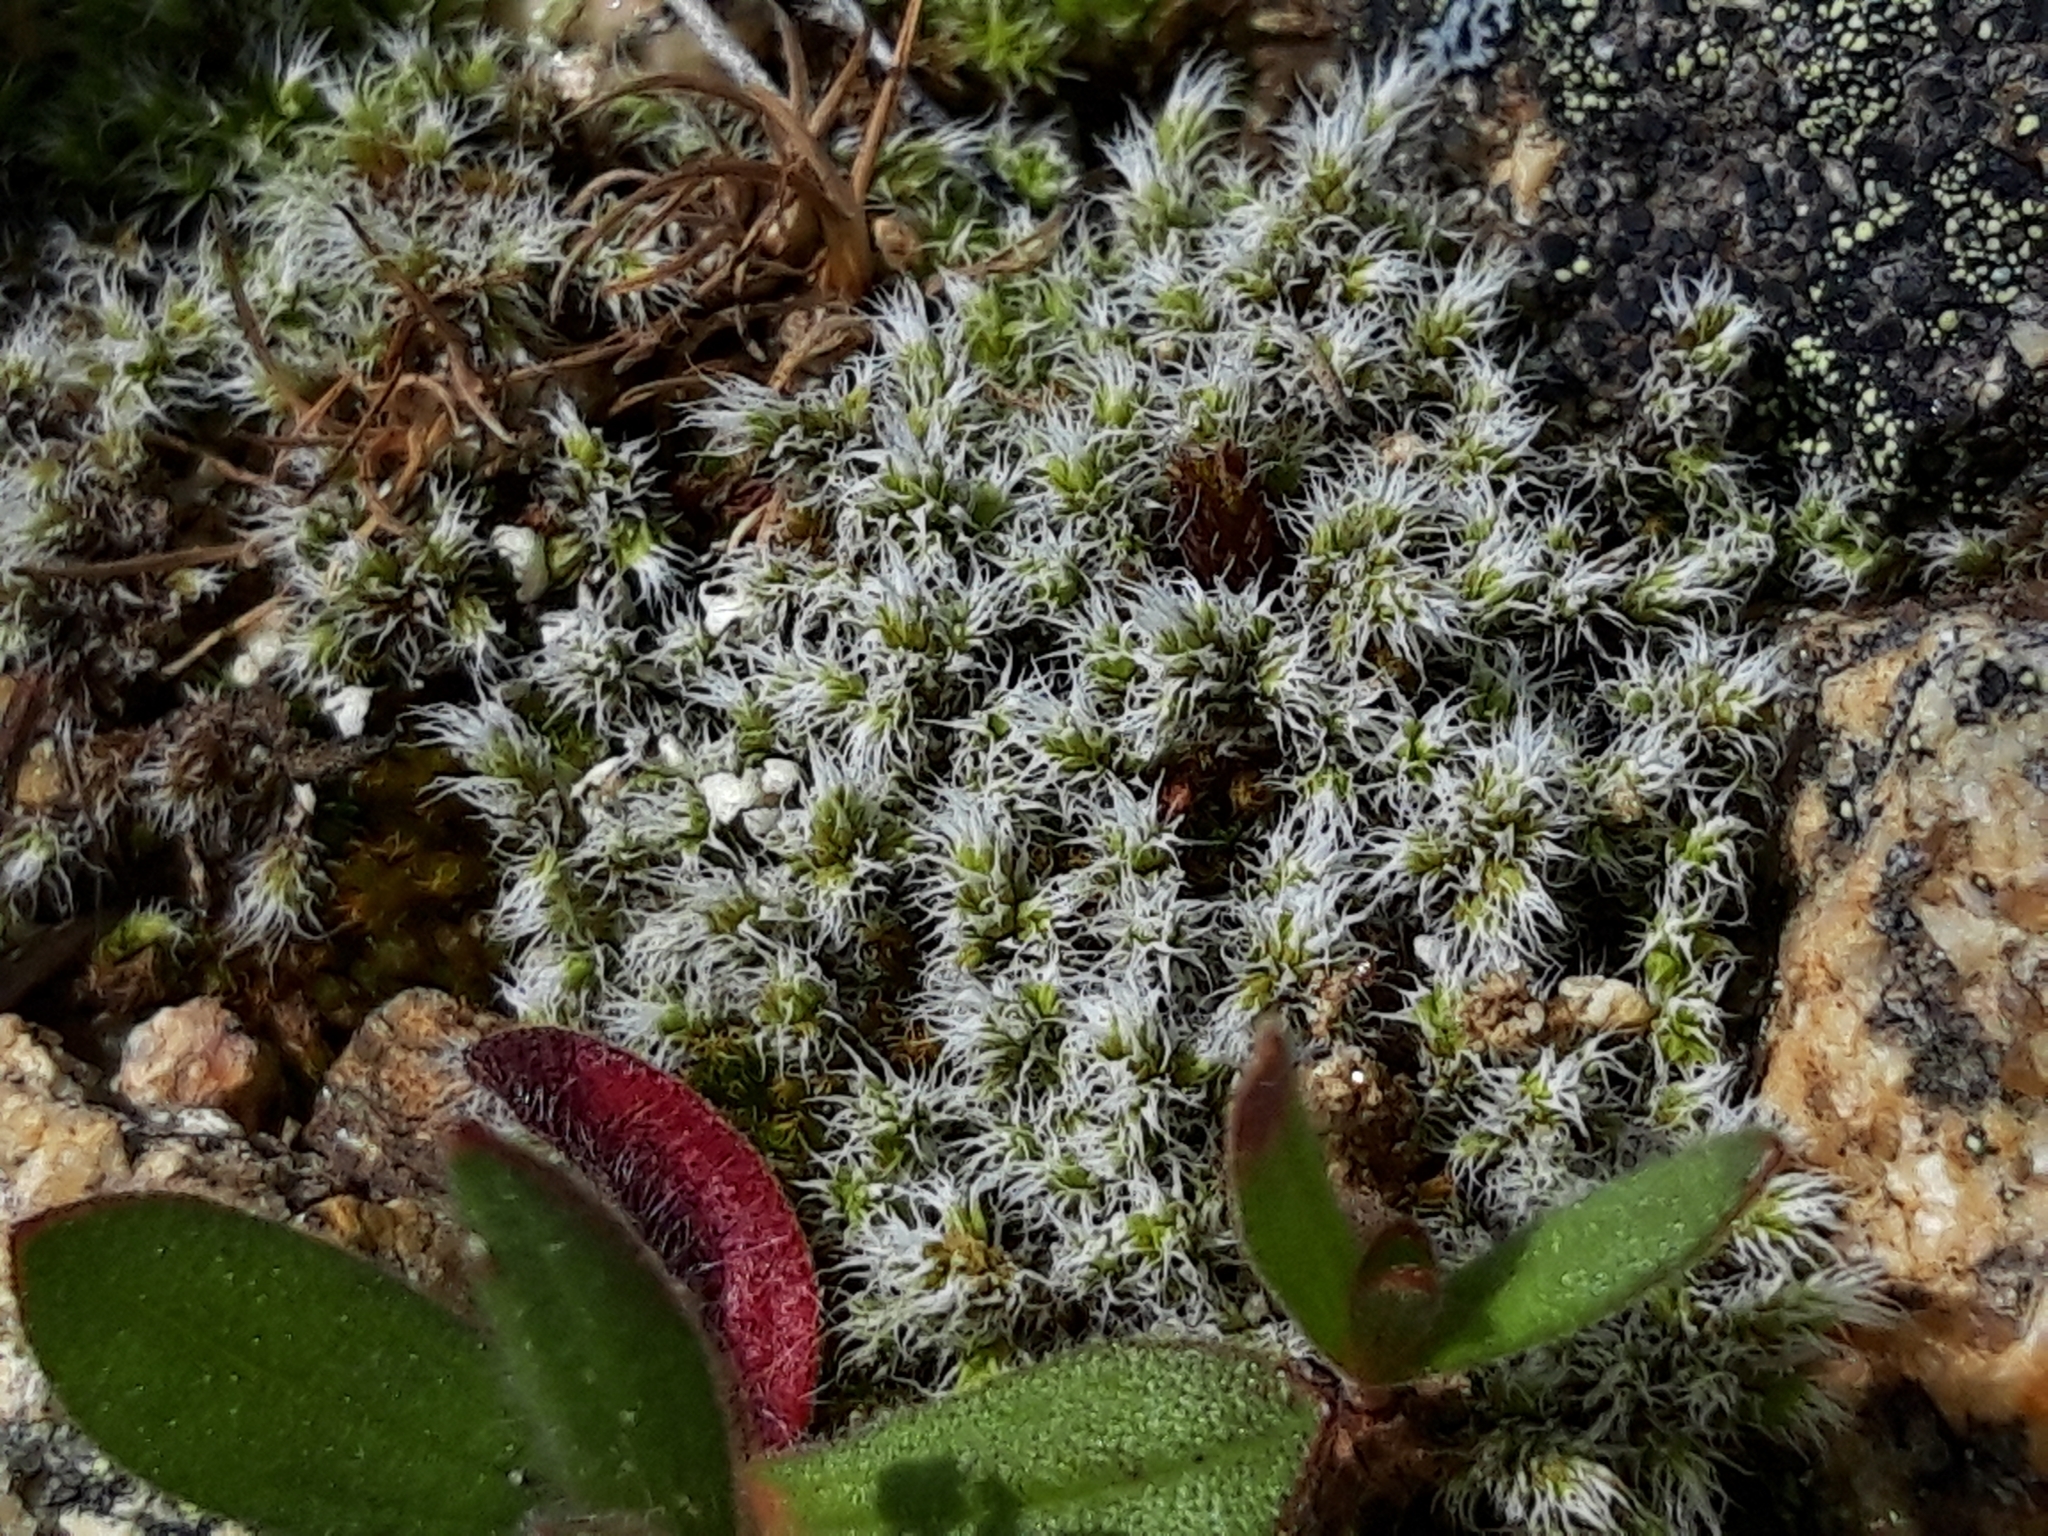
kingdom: Plantae
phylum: Bryophyta
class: Bryopsida
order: Grimmiales
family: Grimmiaceae
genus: Niphotrichum
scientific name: Niphotrichum elongatum
